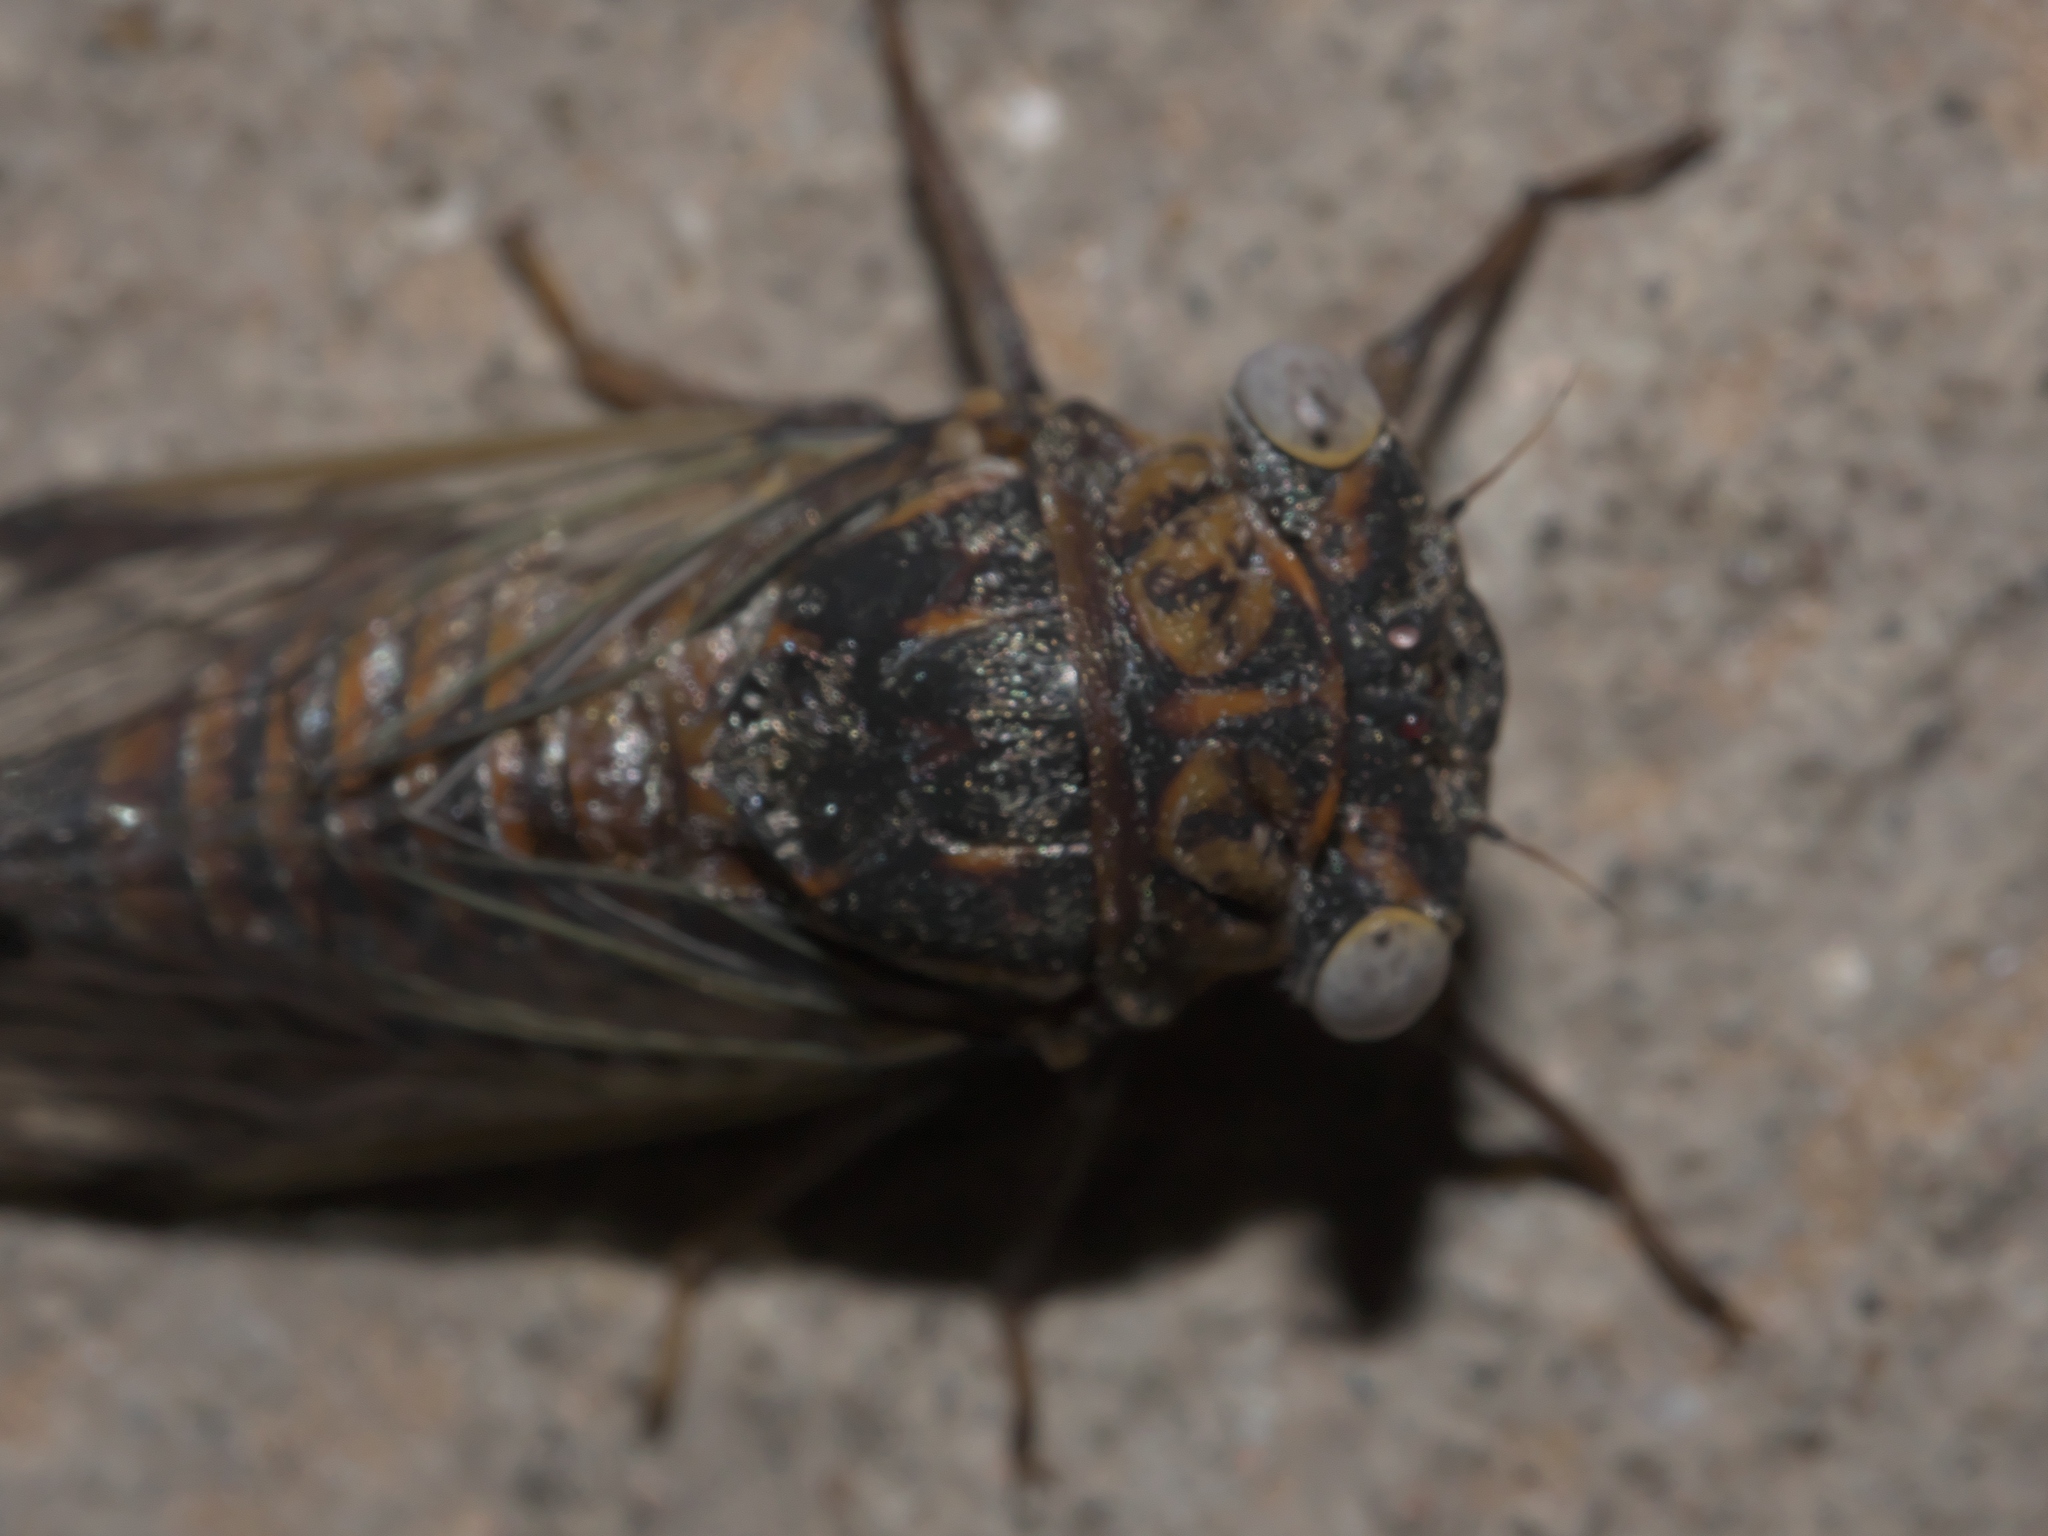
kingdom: Animalia
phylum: Arthropoda
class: Insecta
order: Hemiptera
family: Cicadidae
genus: Pacarina
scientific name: Pacarina puella
